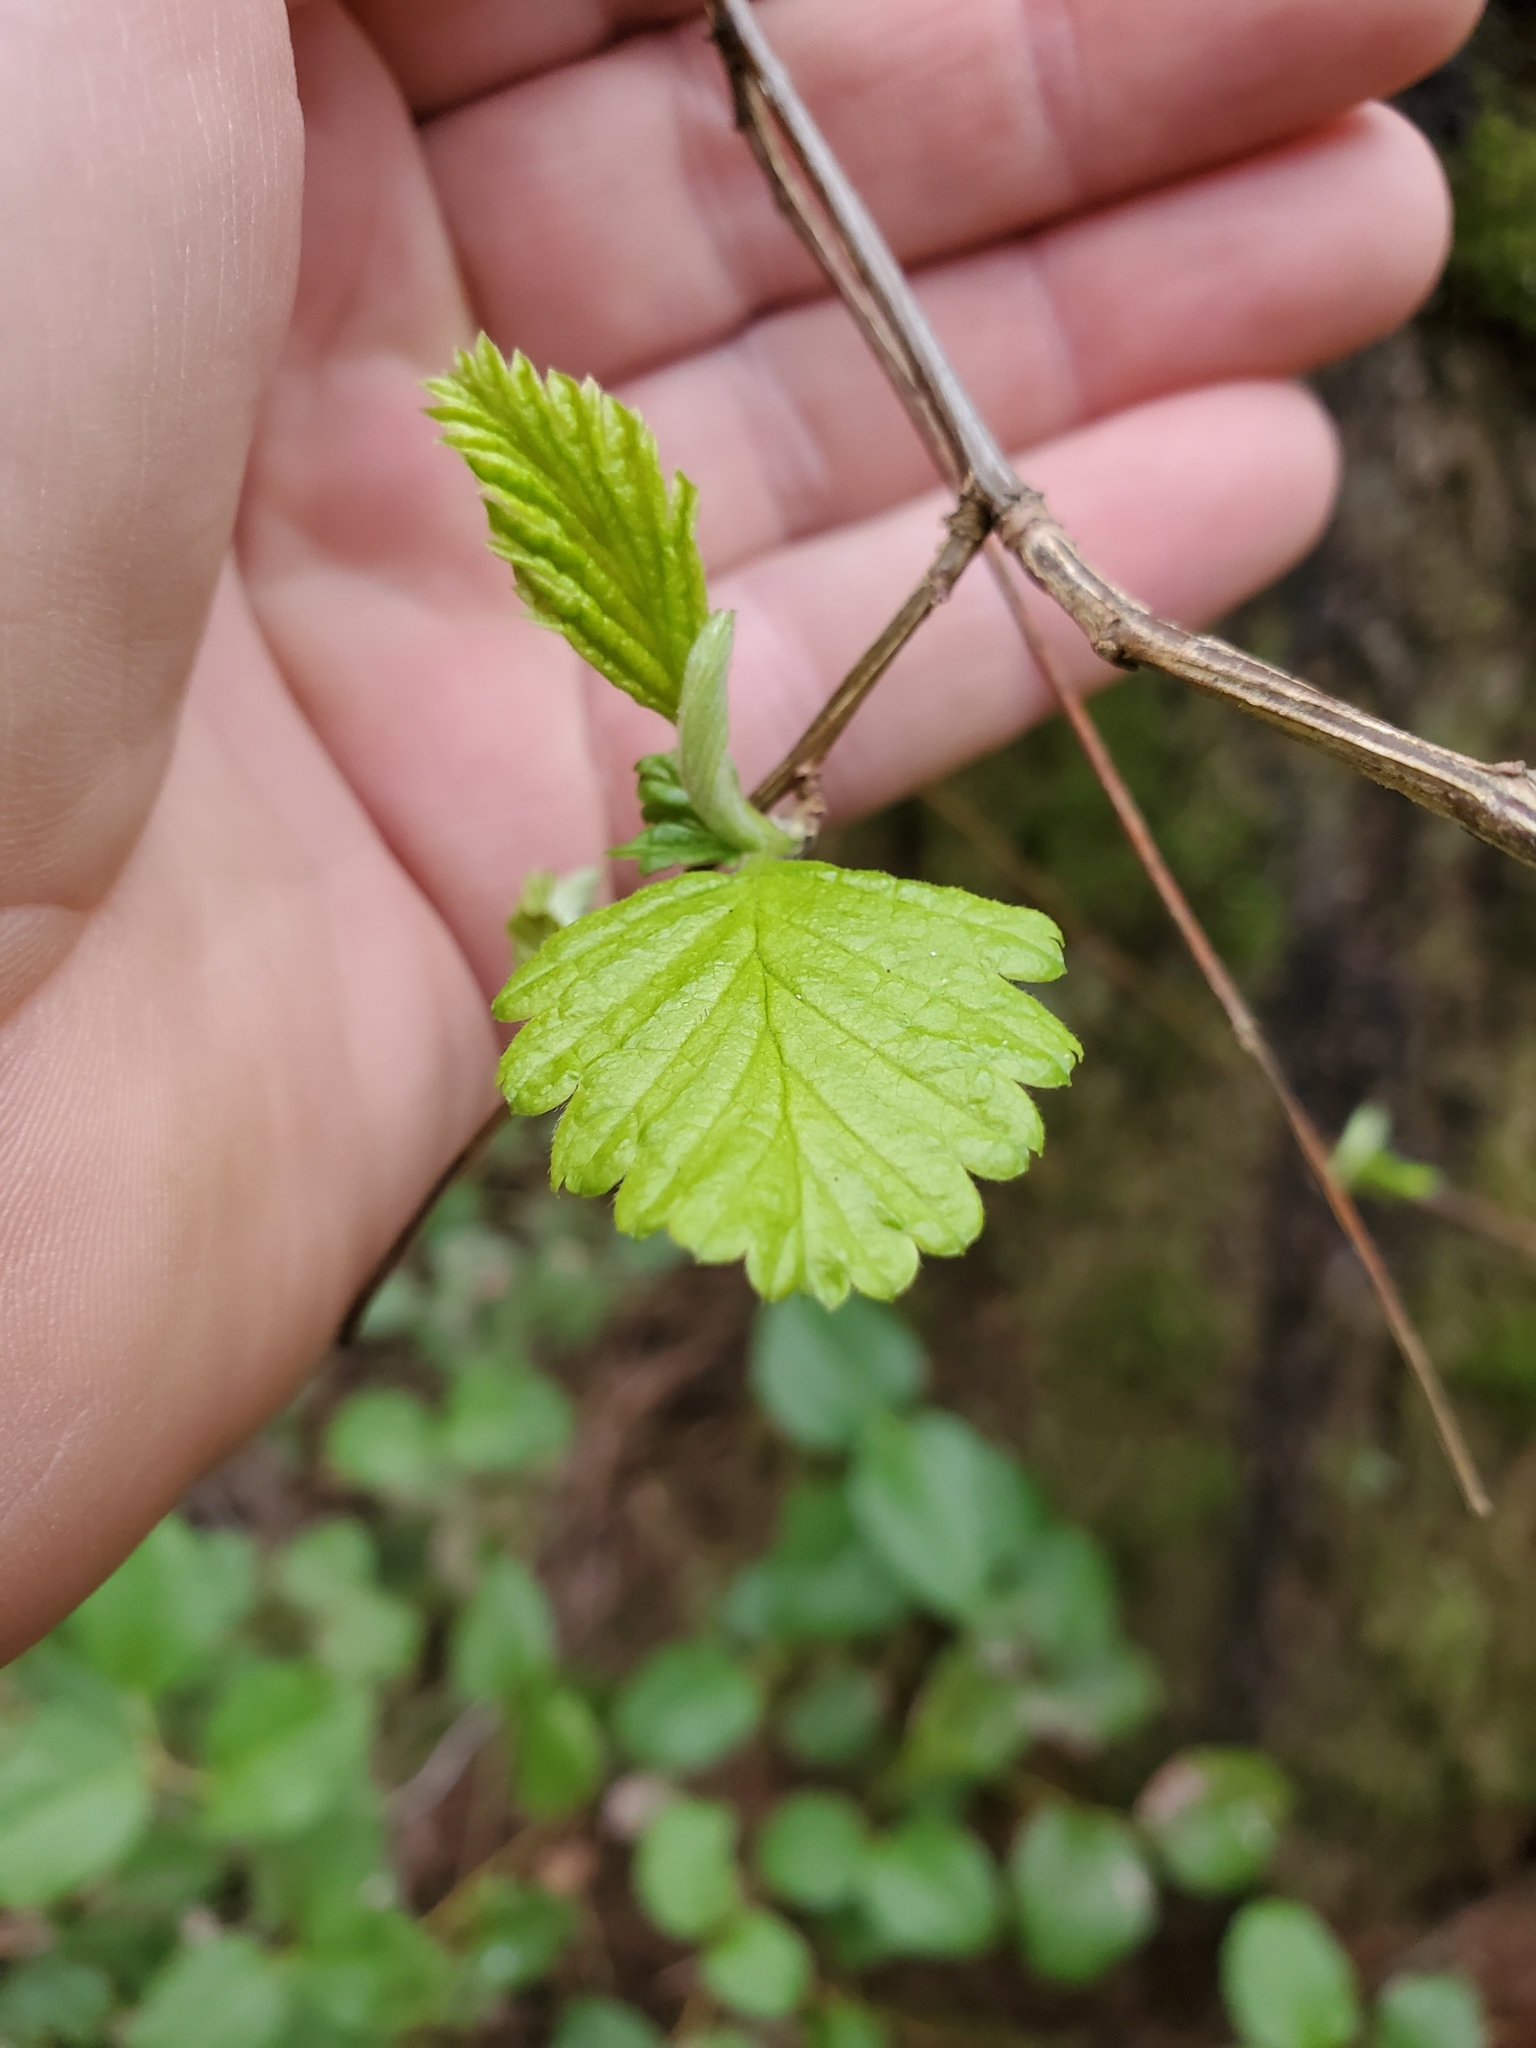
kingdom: Plantae
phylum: Tracheophyta
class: Magnoliopsida
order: Rosales
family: Rosaceae
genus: Holodiscus
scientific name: Holodiscus discolor
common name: Oceanspray
